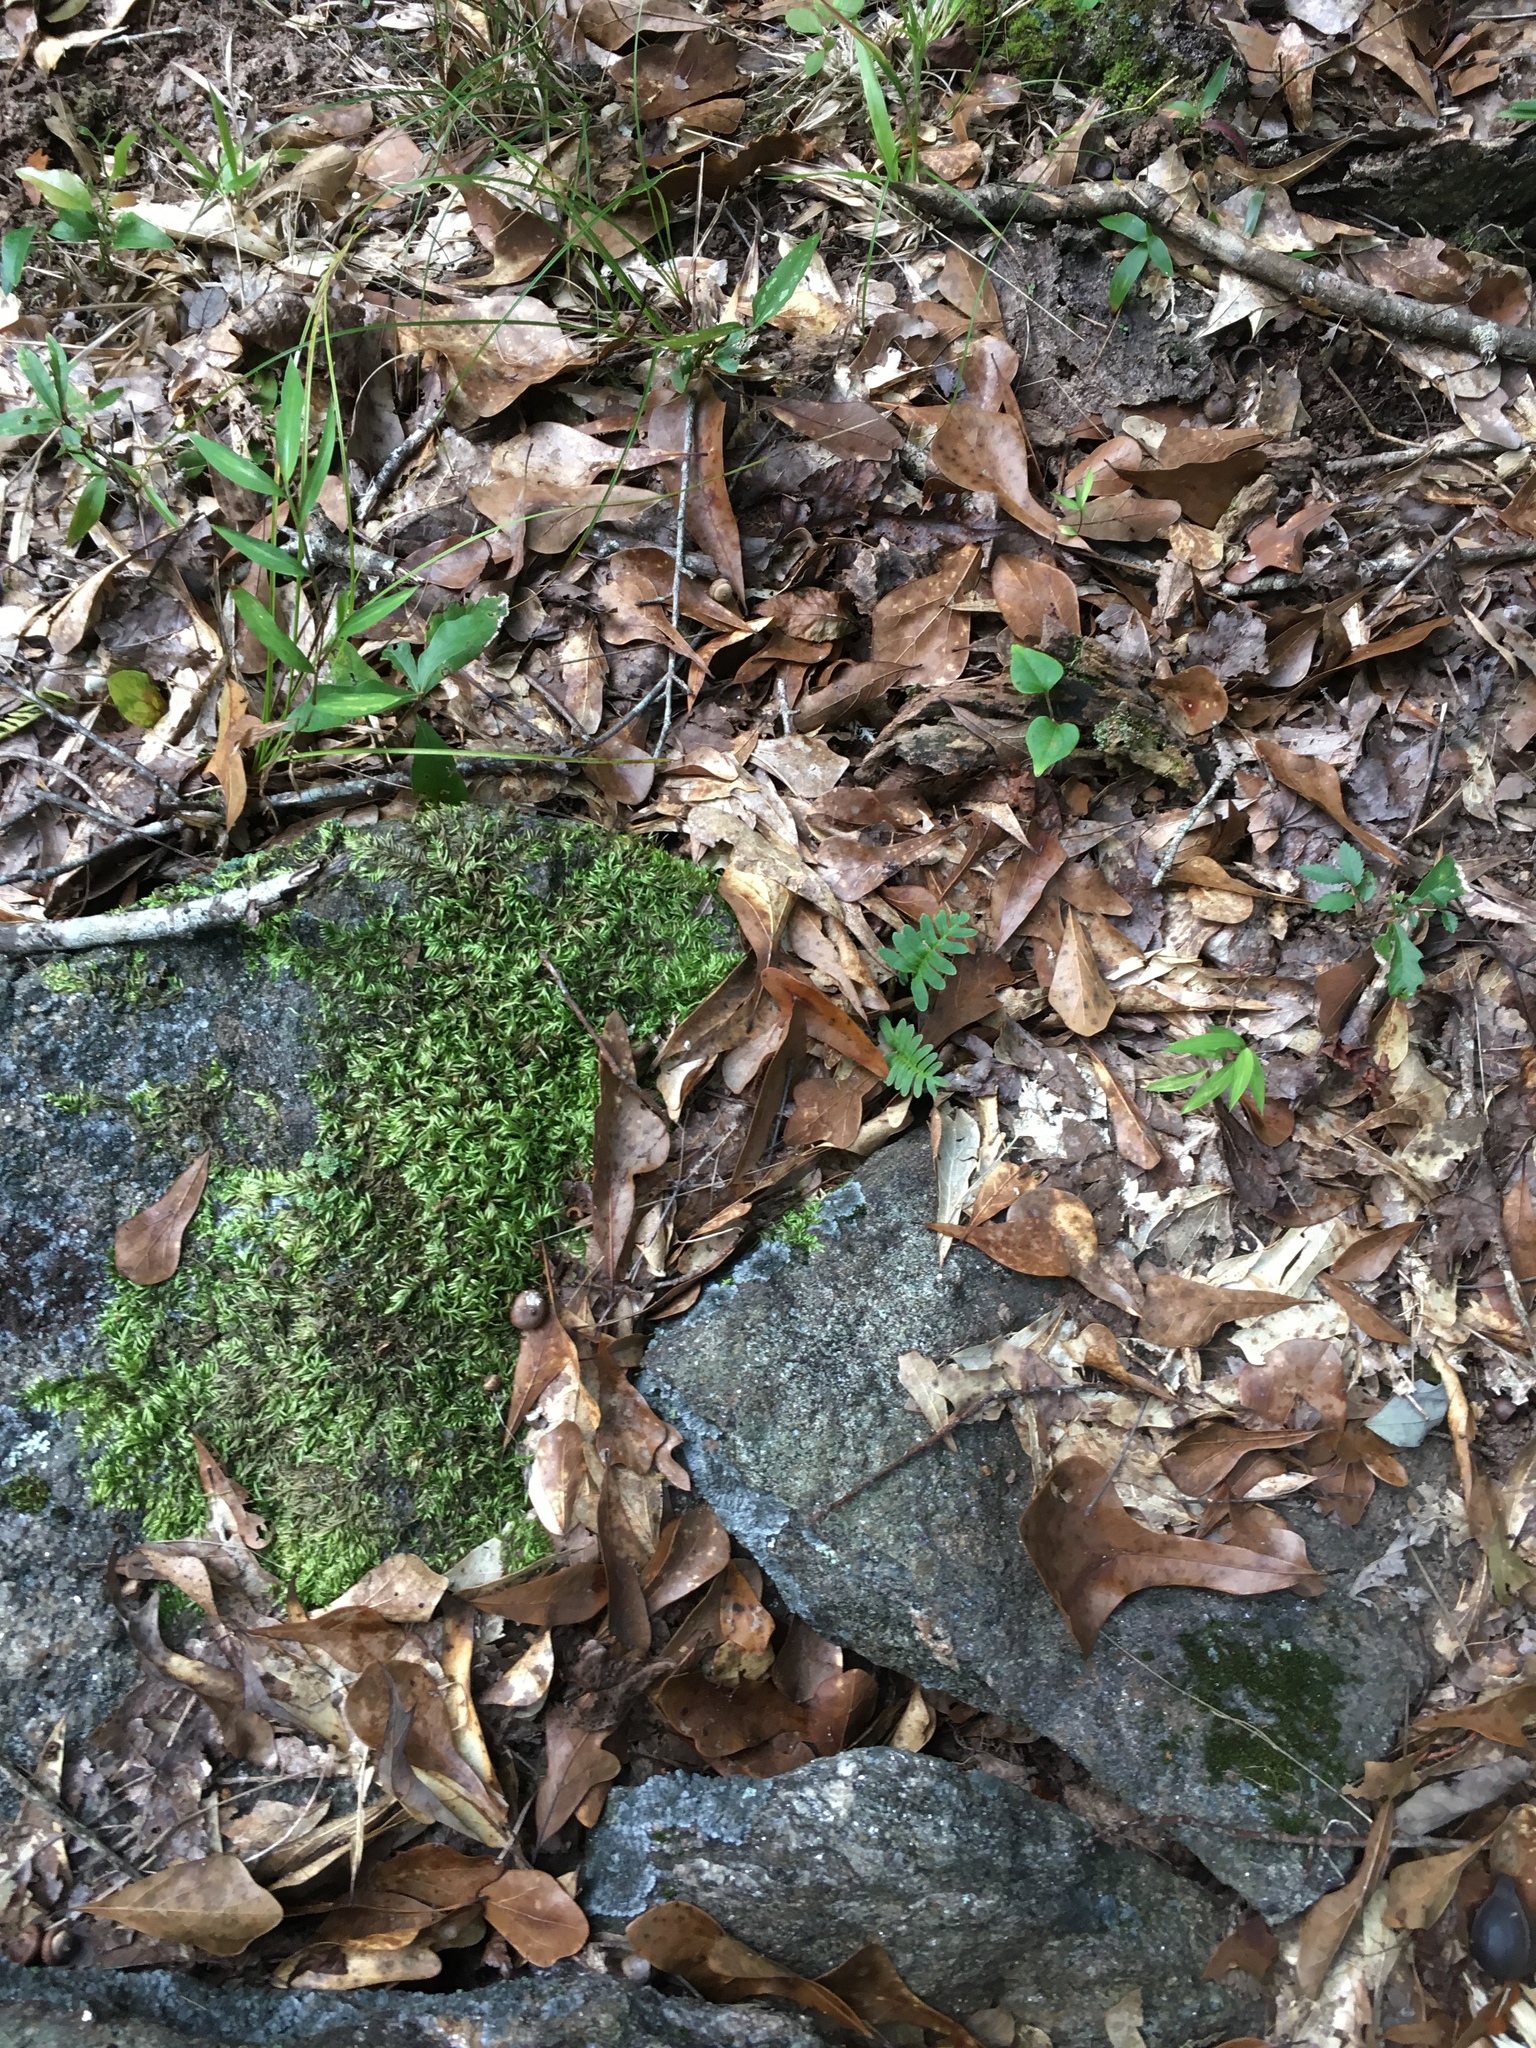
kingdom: Plantae
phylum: Tracheophyta
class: Polypodiopsida
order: Polypodiales
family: Polypodiaceae
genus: Pleopeltis
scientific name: Pleopeltis michauxiana
